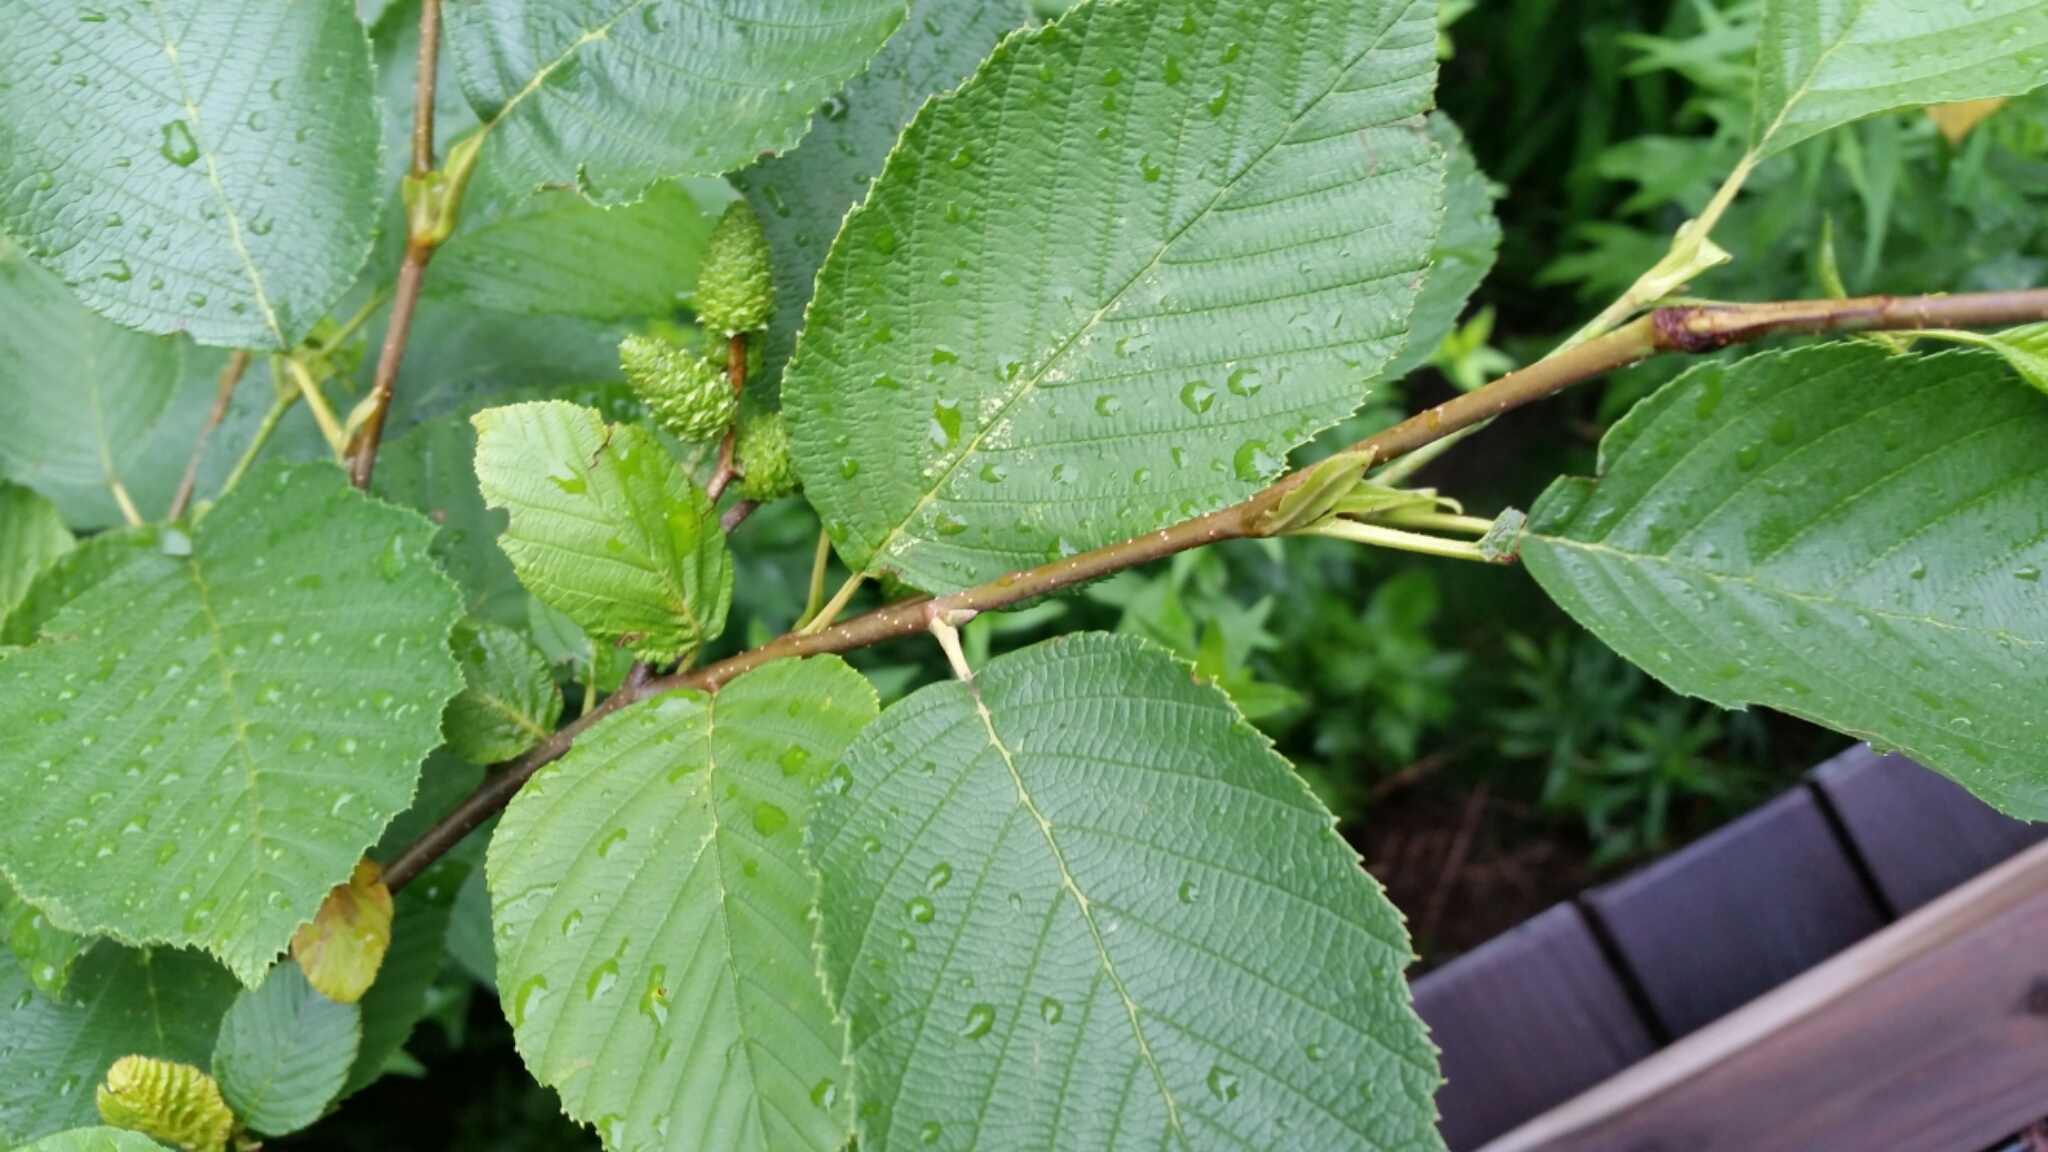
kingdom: Plantae
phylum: Tracheophyta
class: Magnoliopsida
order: Fagales
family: Betulaceae
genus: Alnus
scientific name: Alnus incana
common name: Grey alder
